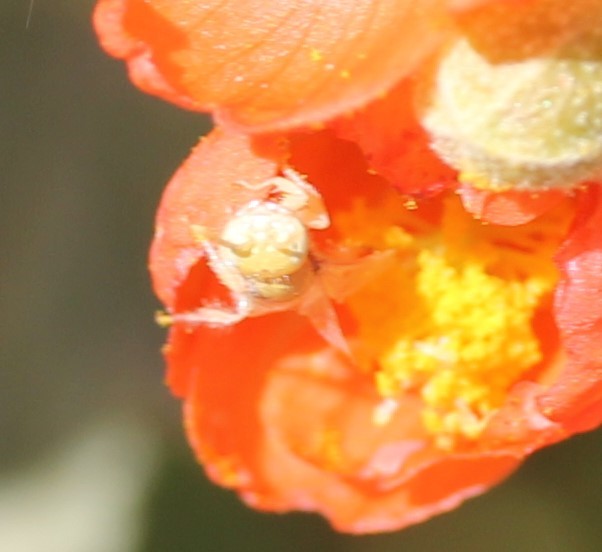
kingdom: Animalia
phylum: Arthropoda
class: Insecta
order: Hymenoptera
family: Andrenidae
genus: Perdita
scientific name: Perdita xanthochroa
